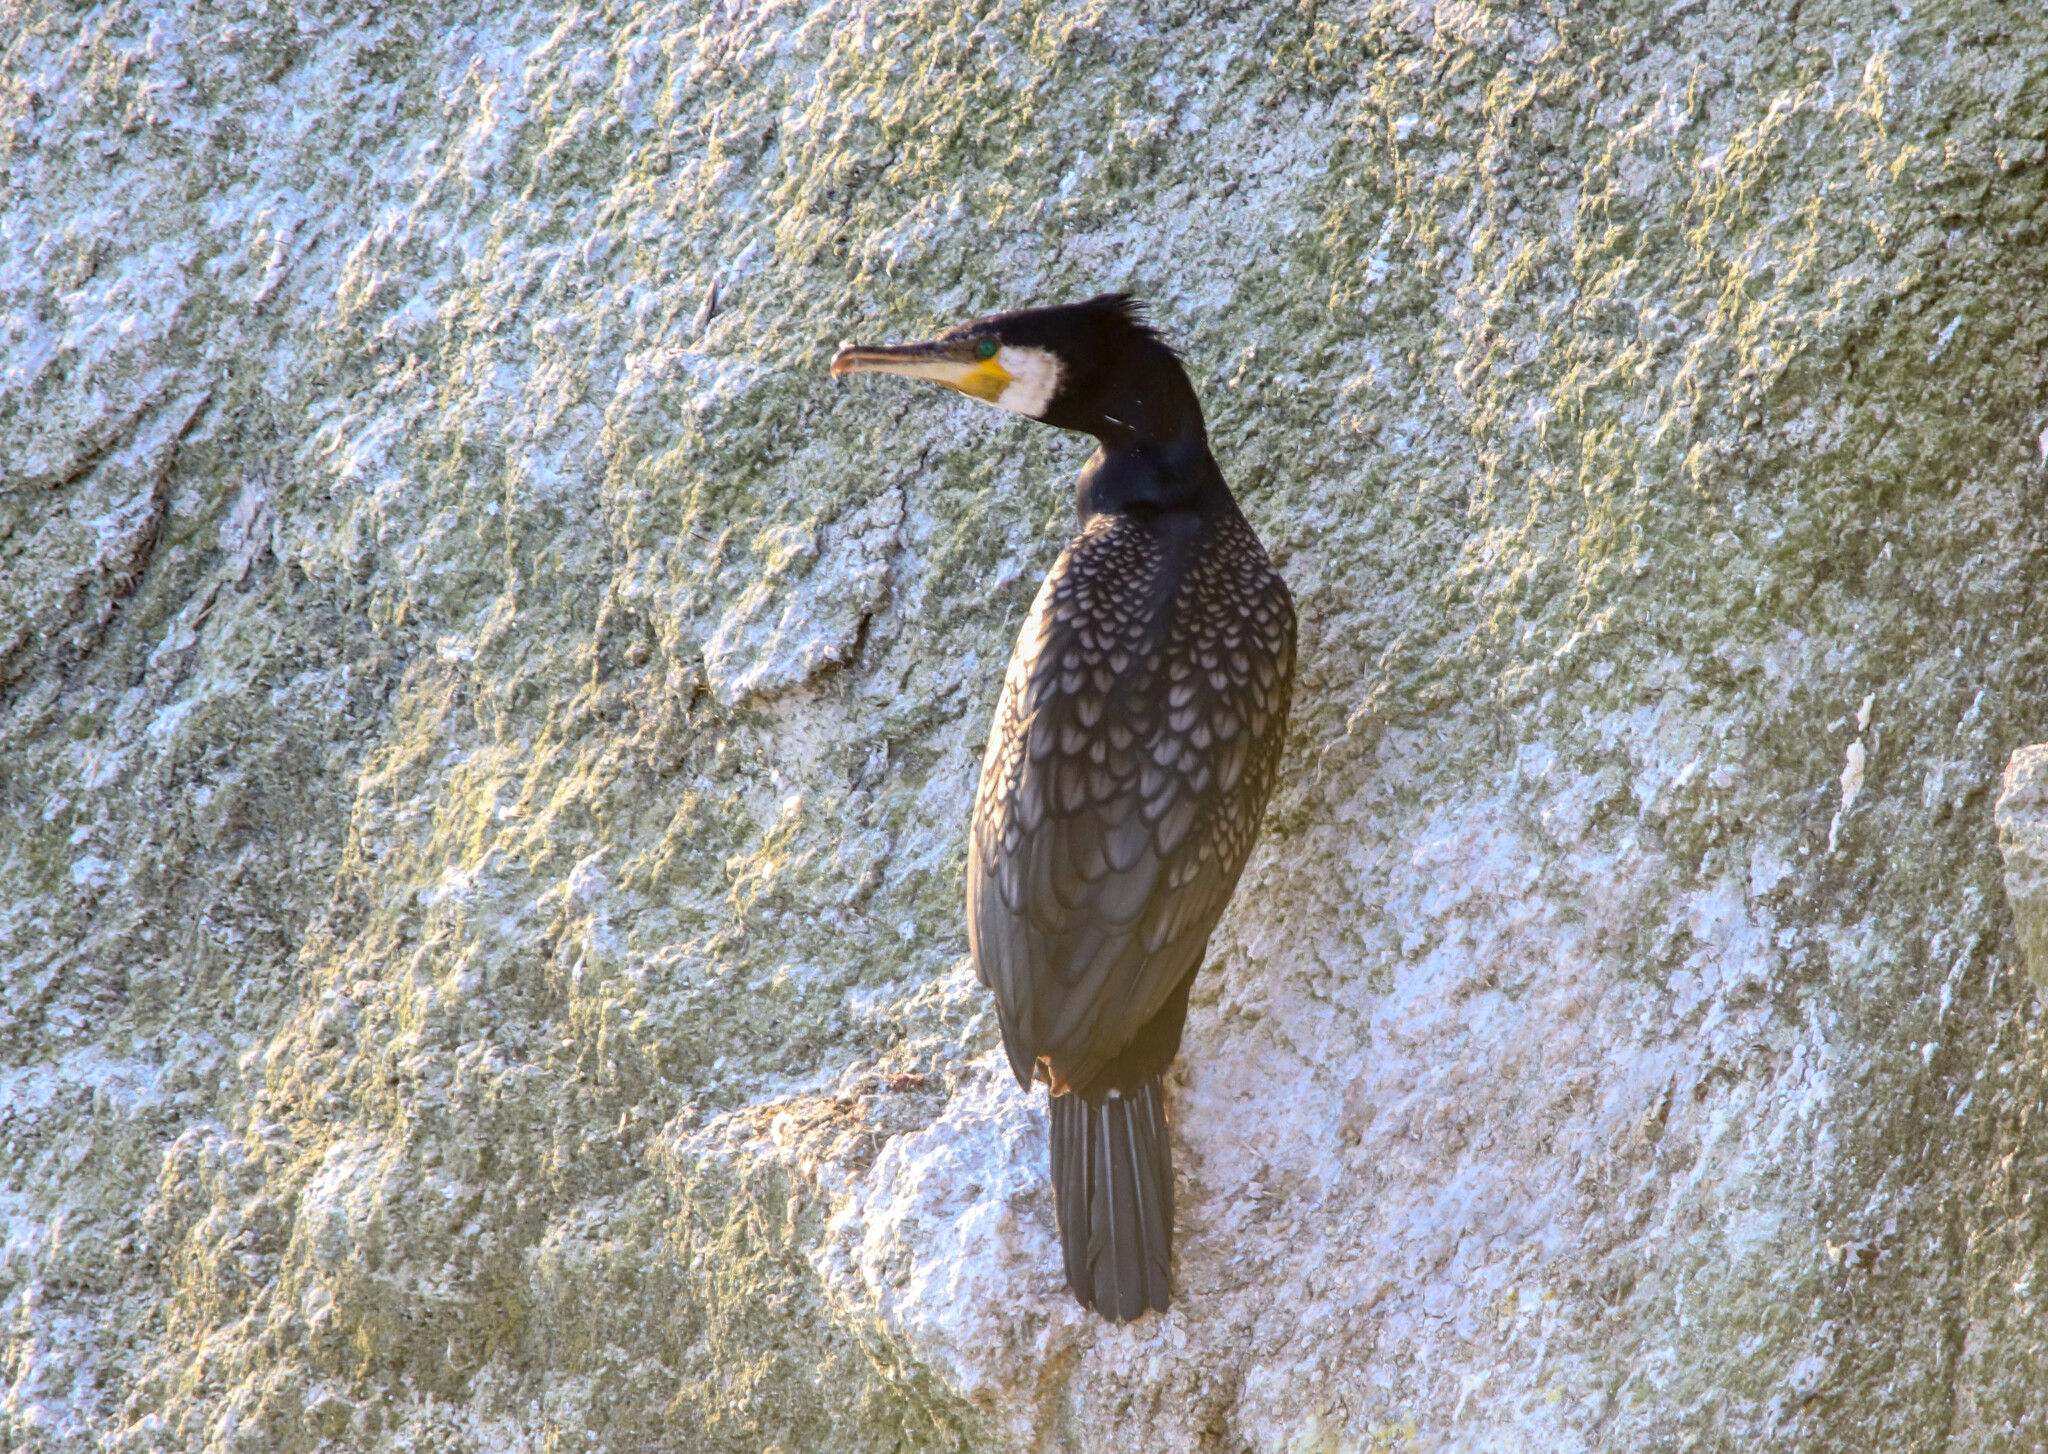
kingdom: Animalia
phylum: Chordata
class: Aves
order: Suliformes
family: Phalacrocoracidae
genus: Phalacrocorax
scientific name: Phalacrocorax carbo
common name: Great cormorant
